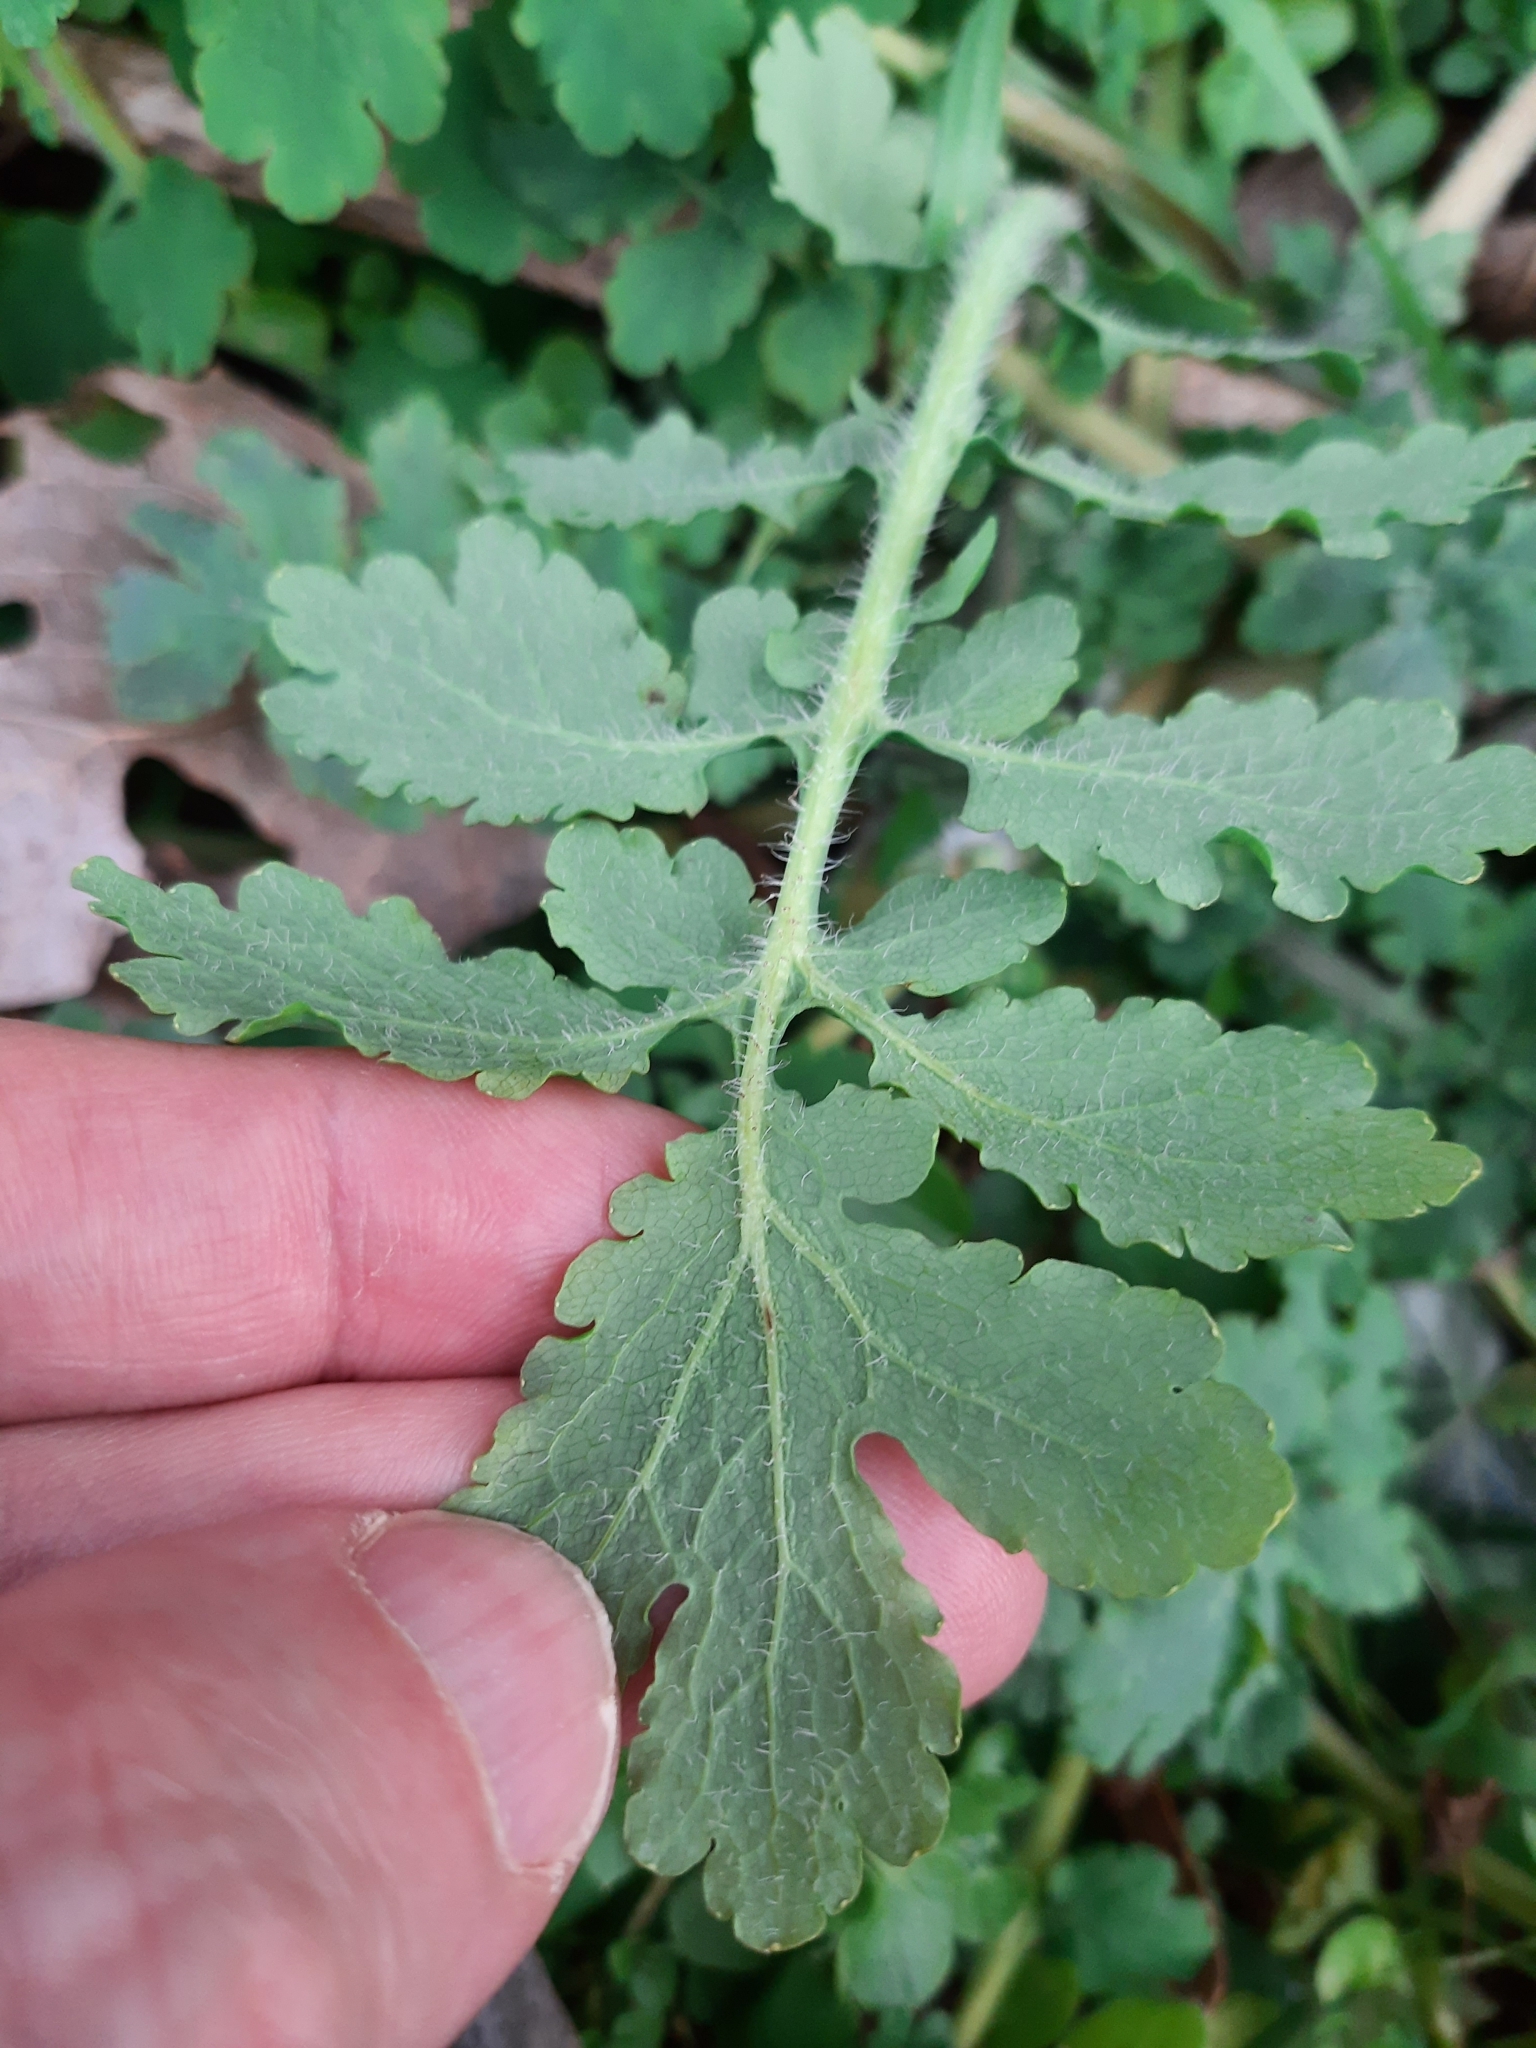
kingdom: Plantae
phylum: Tracheophyta
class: Magnoliopsida
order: Ranunculales
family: Papaveraceae
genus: Chelidonium
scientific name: Chelidonium majus
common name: Greater celandine
